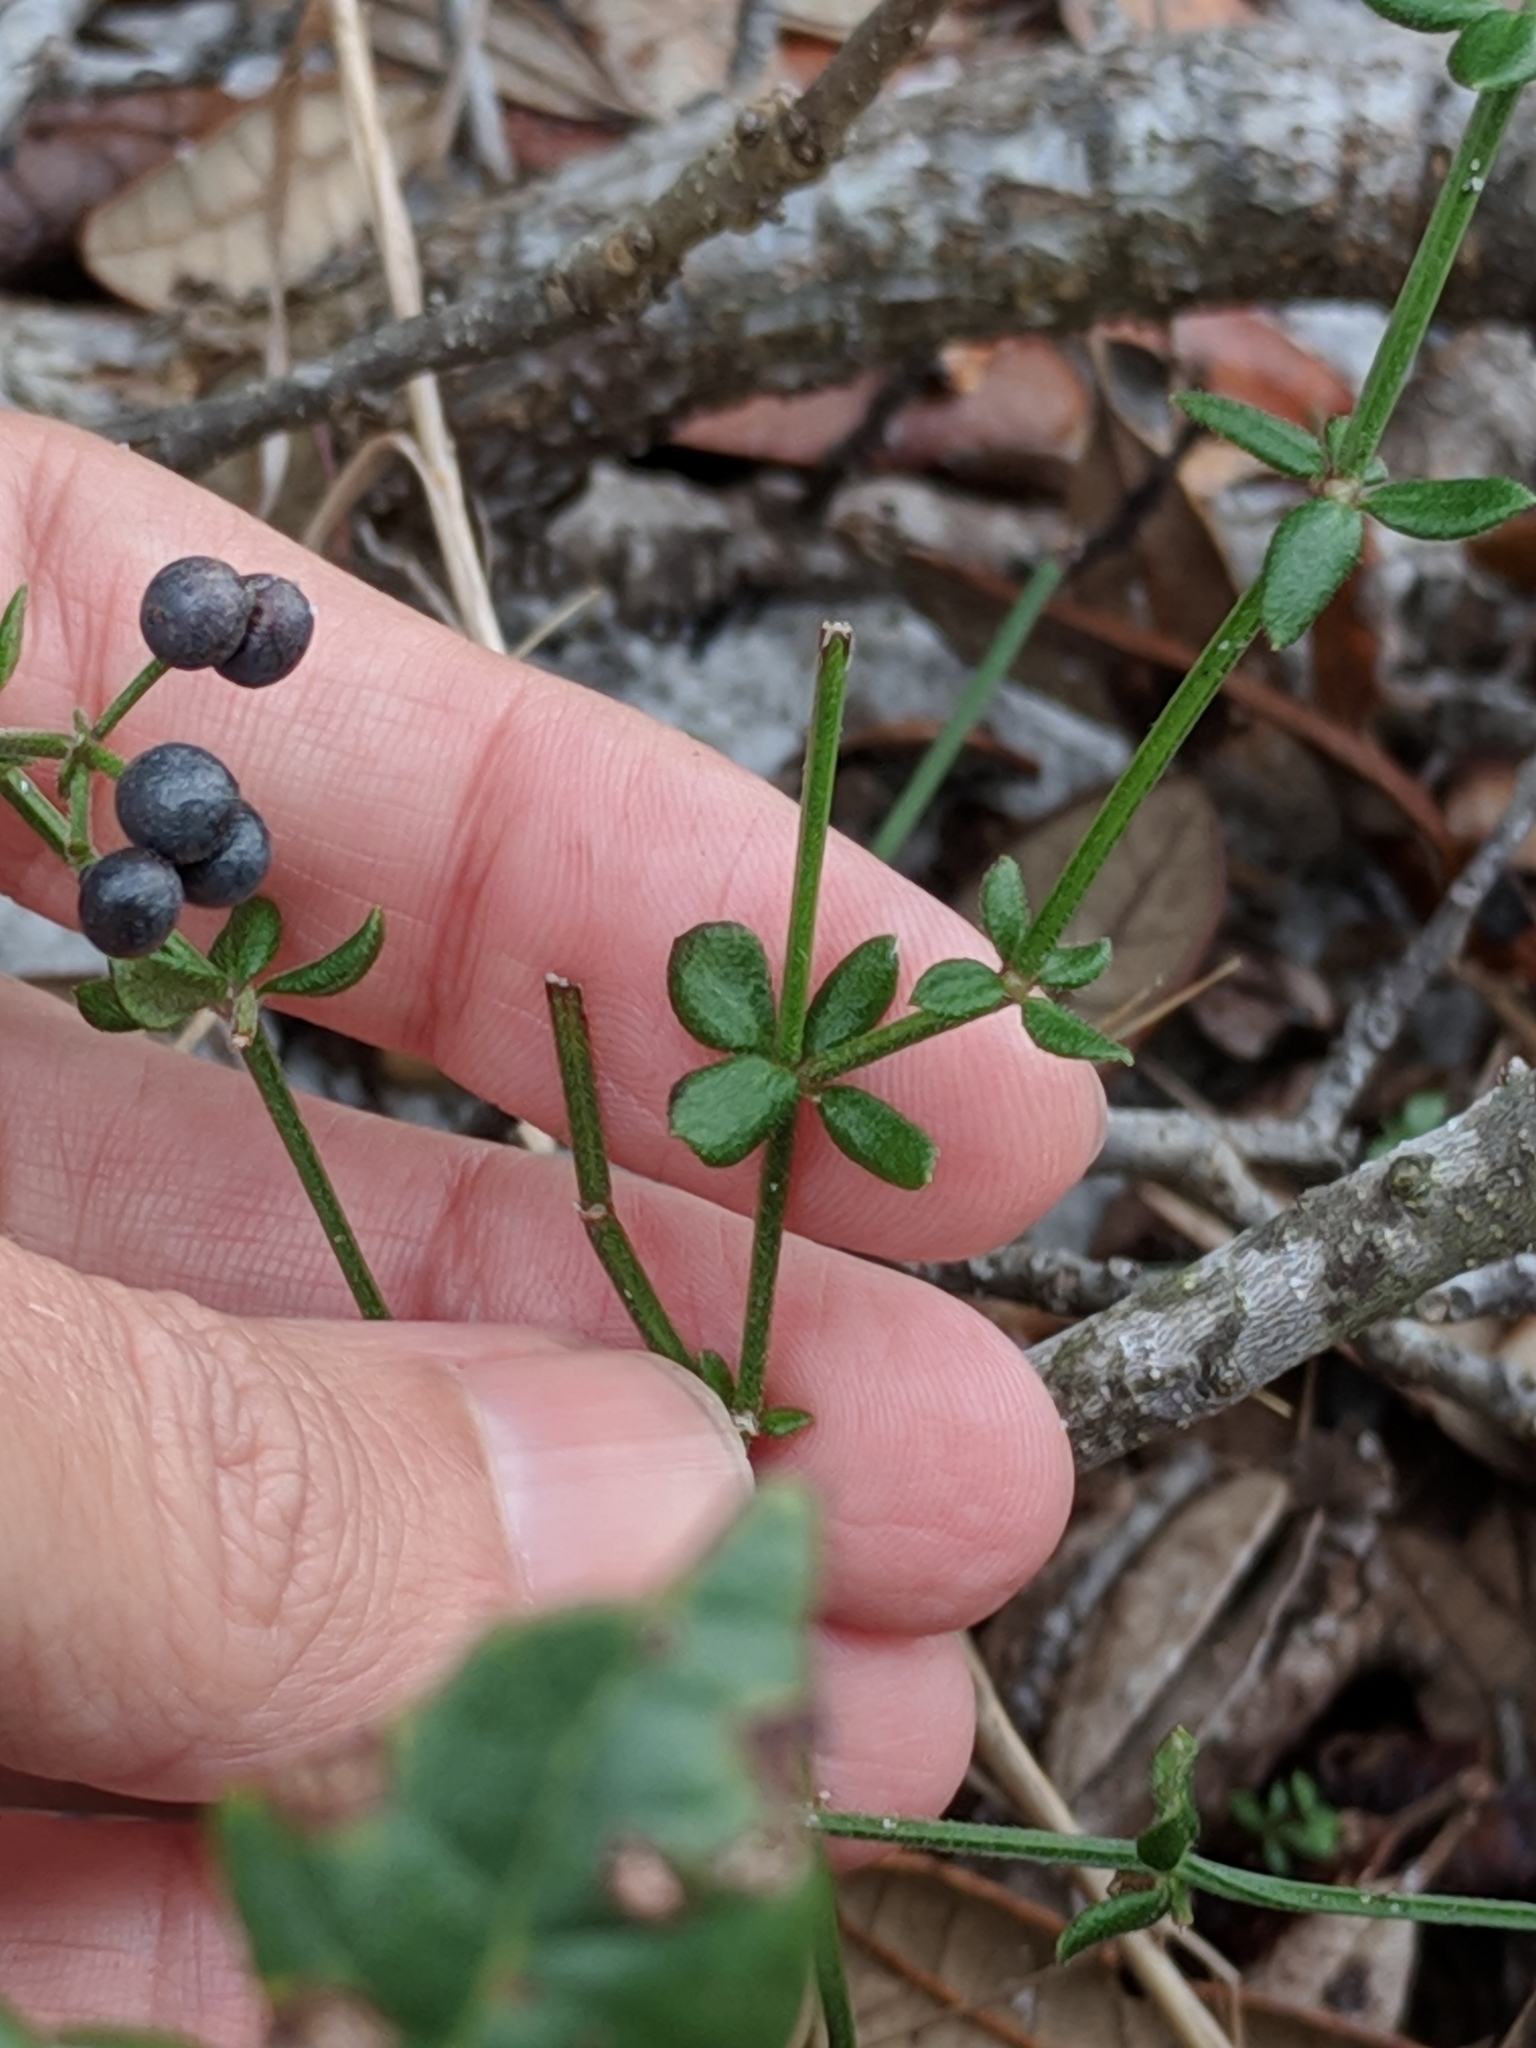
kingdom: Plantae
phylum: Tracheophyta
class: Magnoliopsida
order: Gentianales
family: Rubiaceae
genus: Galium
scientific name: Galium bermudense
